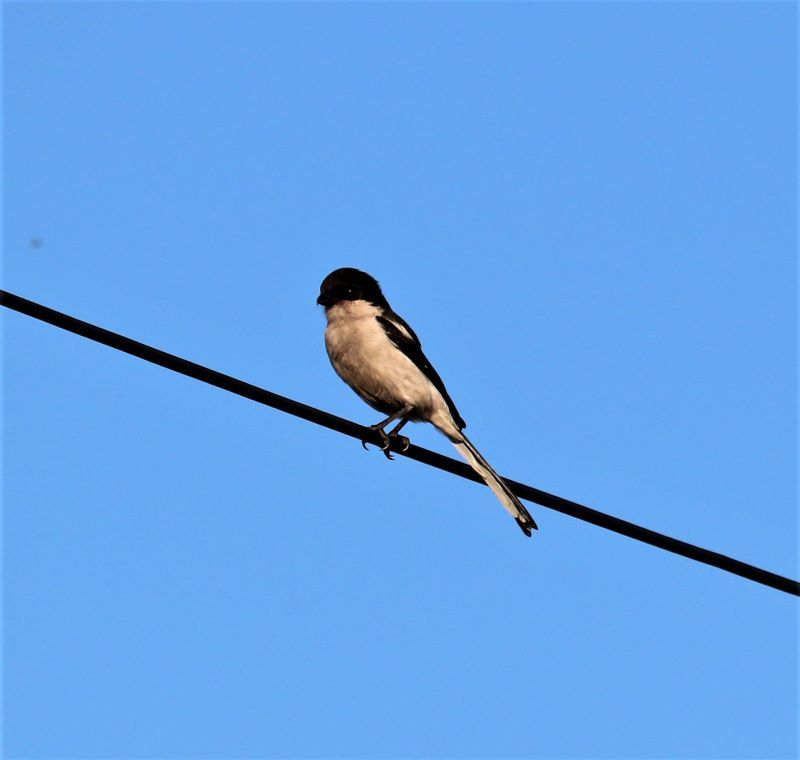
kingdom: Animalia
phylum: Chordata
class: Aves
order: Passeriformes
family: Laniidae
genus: Lanius
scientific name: Lanius collaris
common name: Southern fiscal
